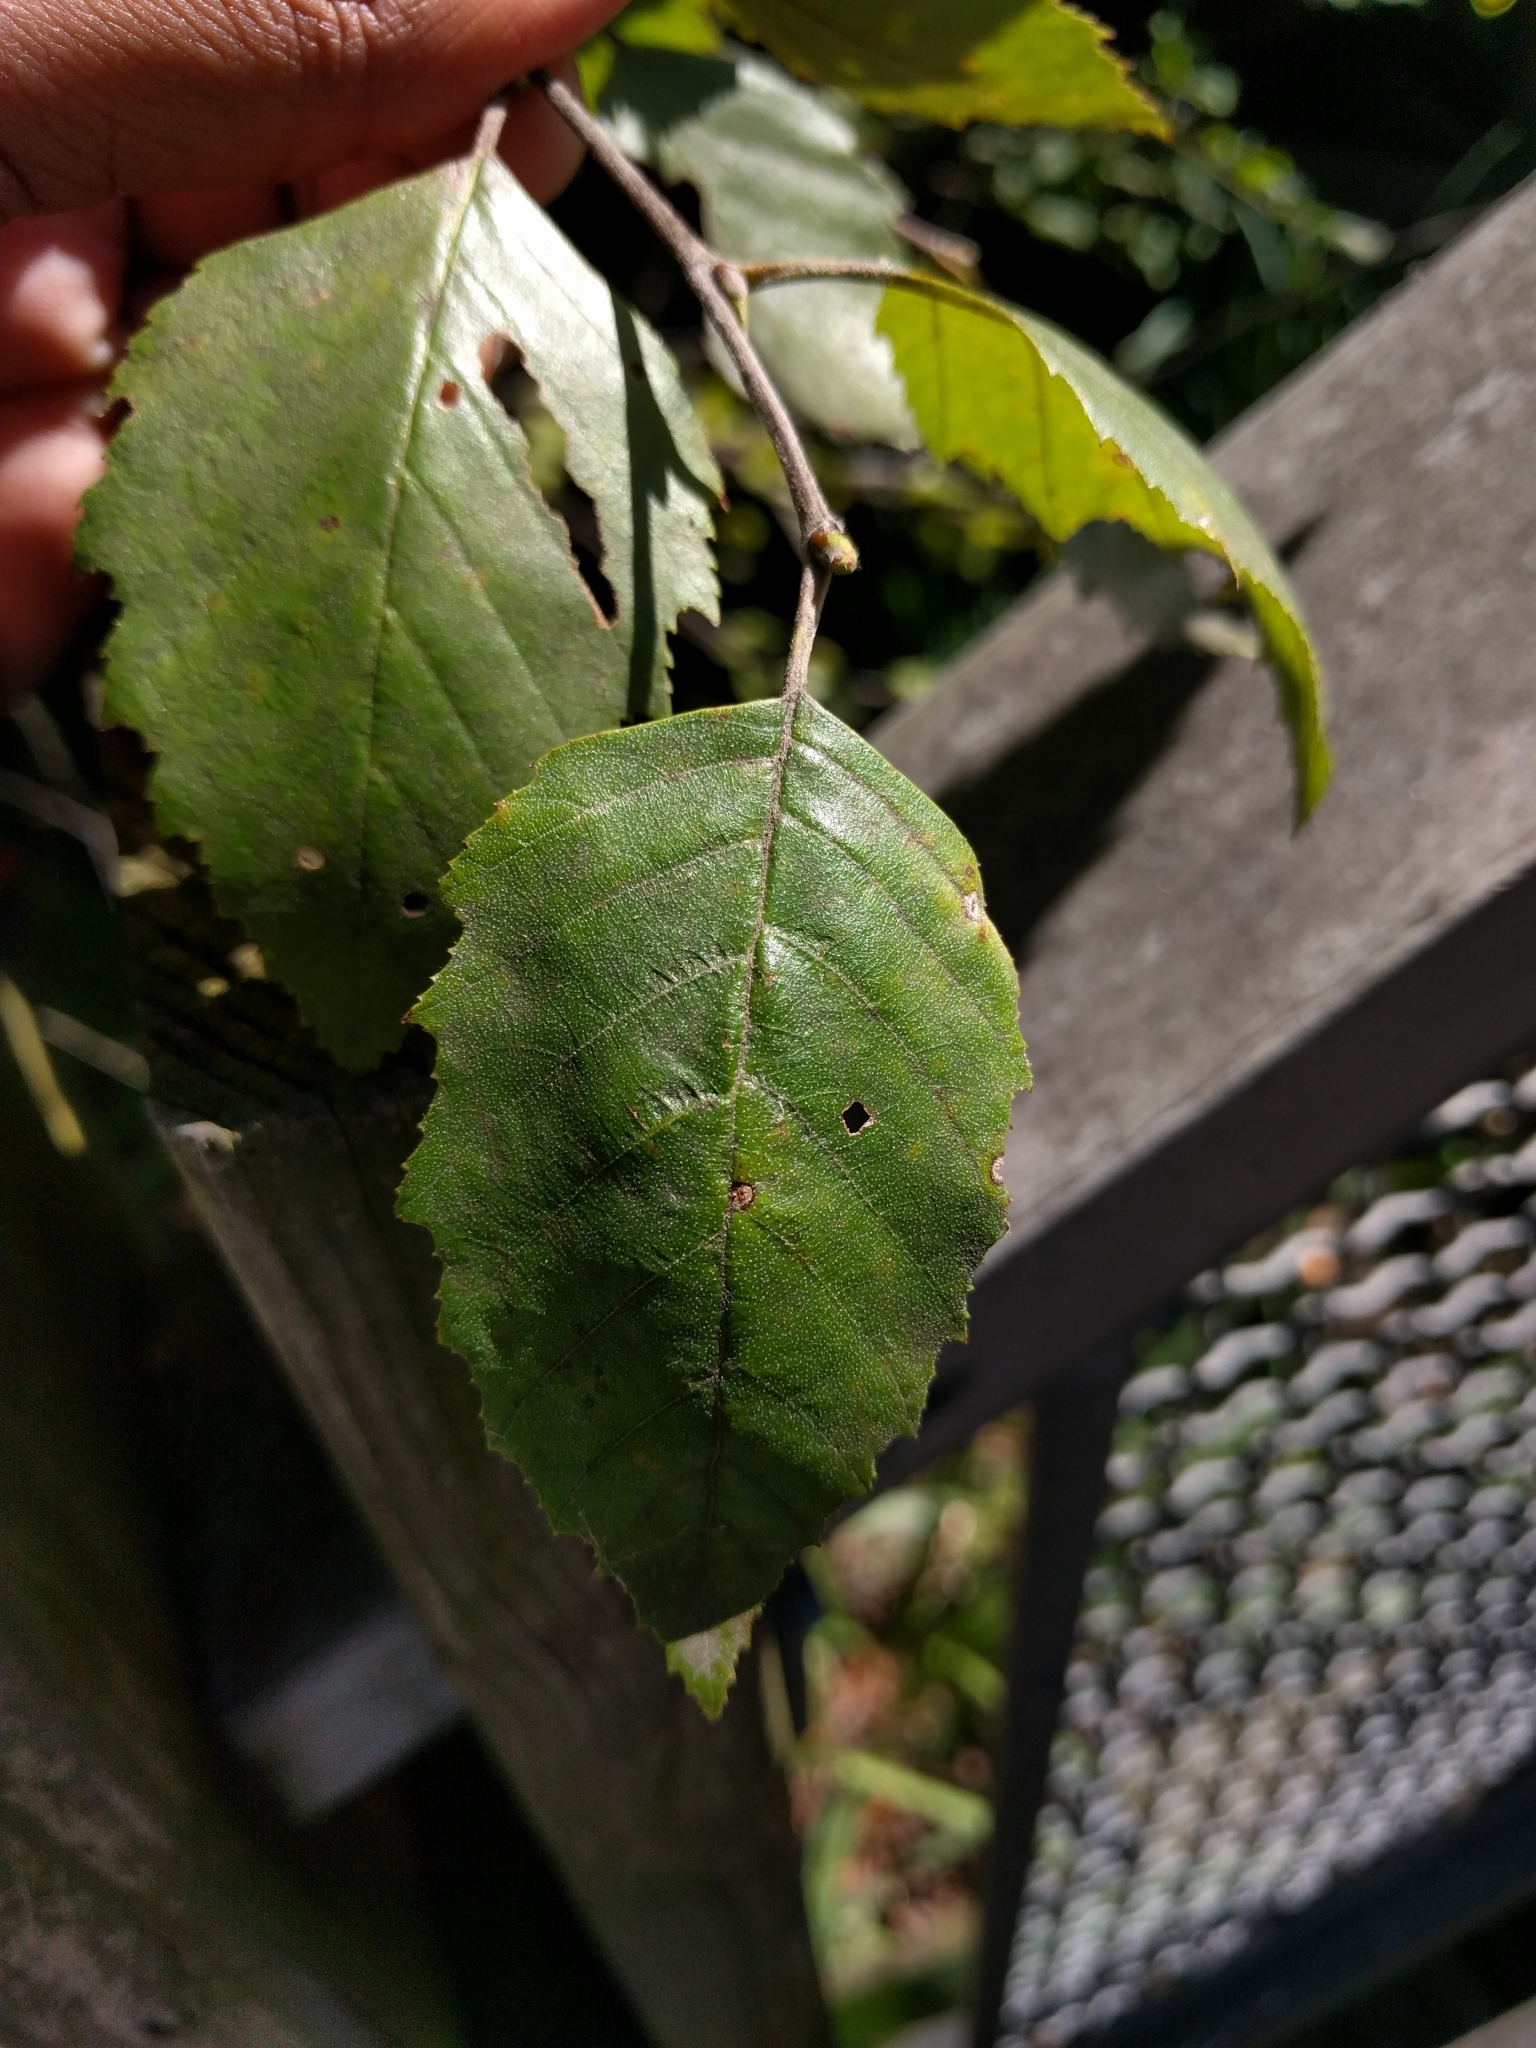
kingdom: Plantae
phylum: Tracheophyta
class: Magnoliopsida
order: Fagales
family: Betulaceae
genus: Betula
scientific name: Betula nigra
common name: Black birch
